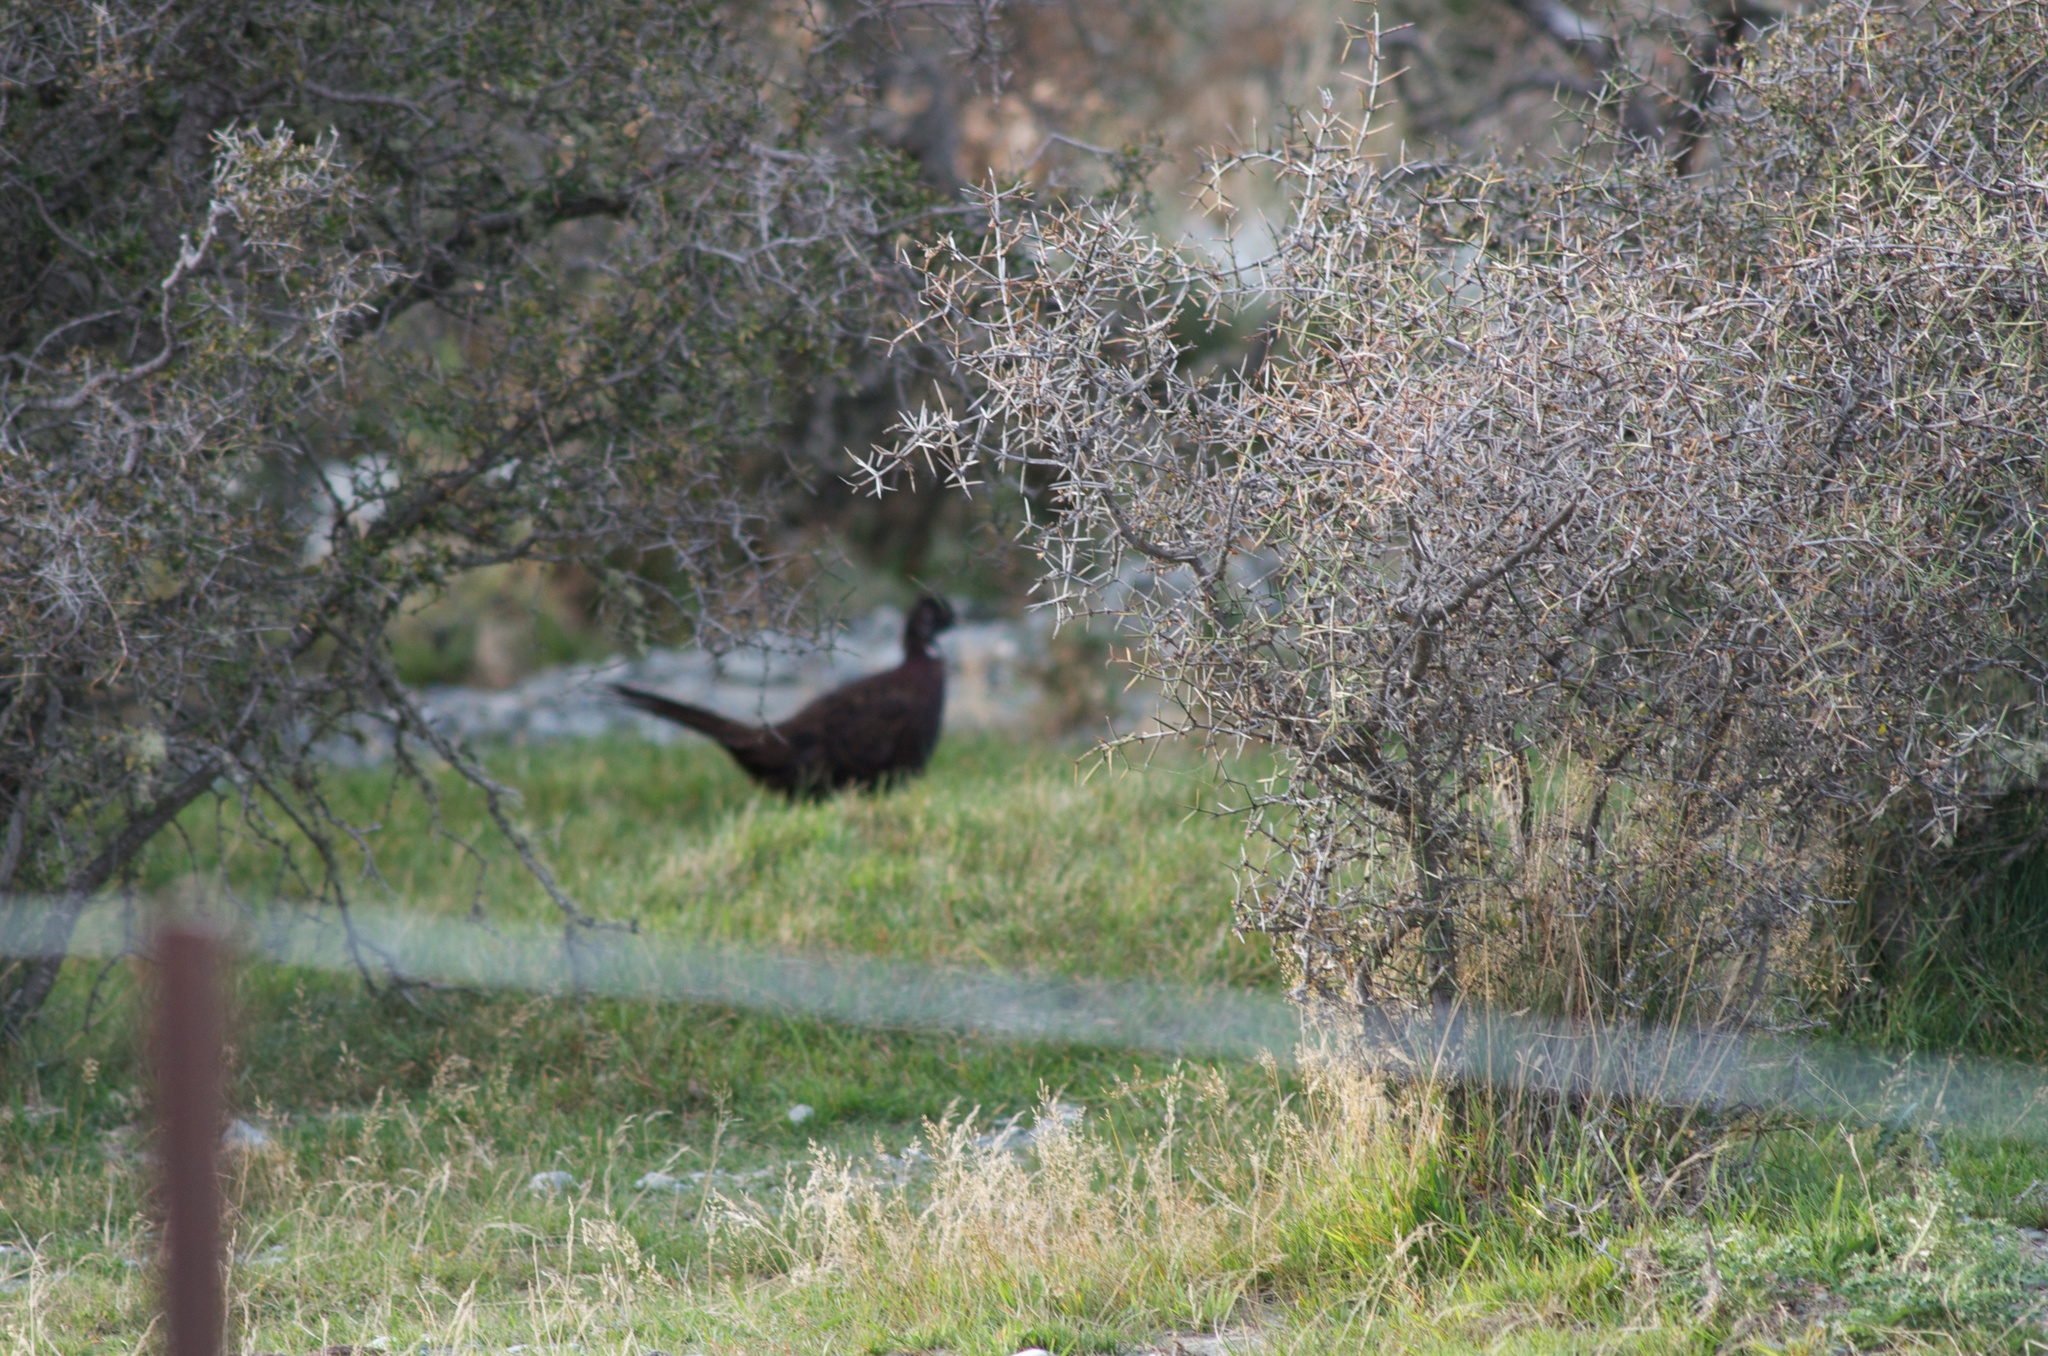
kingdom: Animalia
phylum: Chordata
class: Aves
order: Galliformes
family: Phasianidae
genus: Phasianus
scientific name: Phasianus colchicus
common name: Common pheasant
